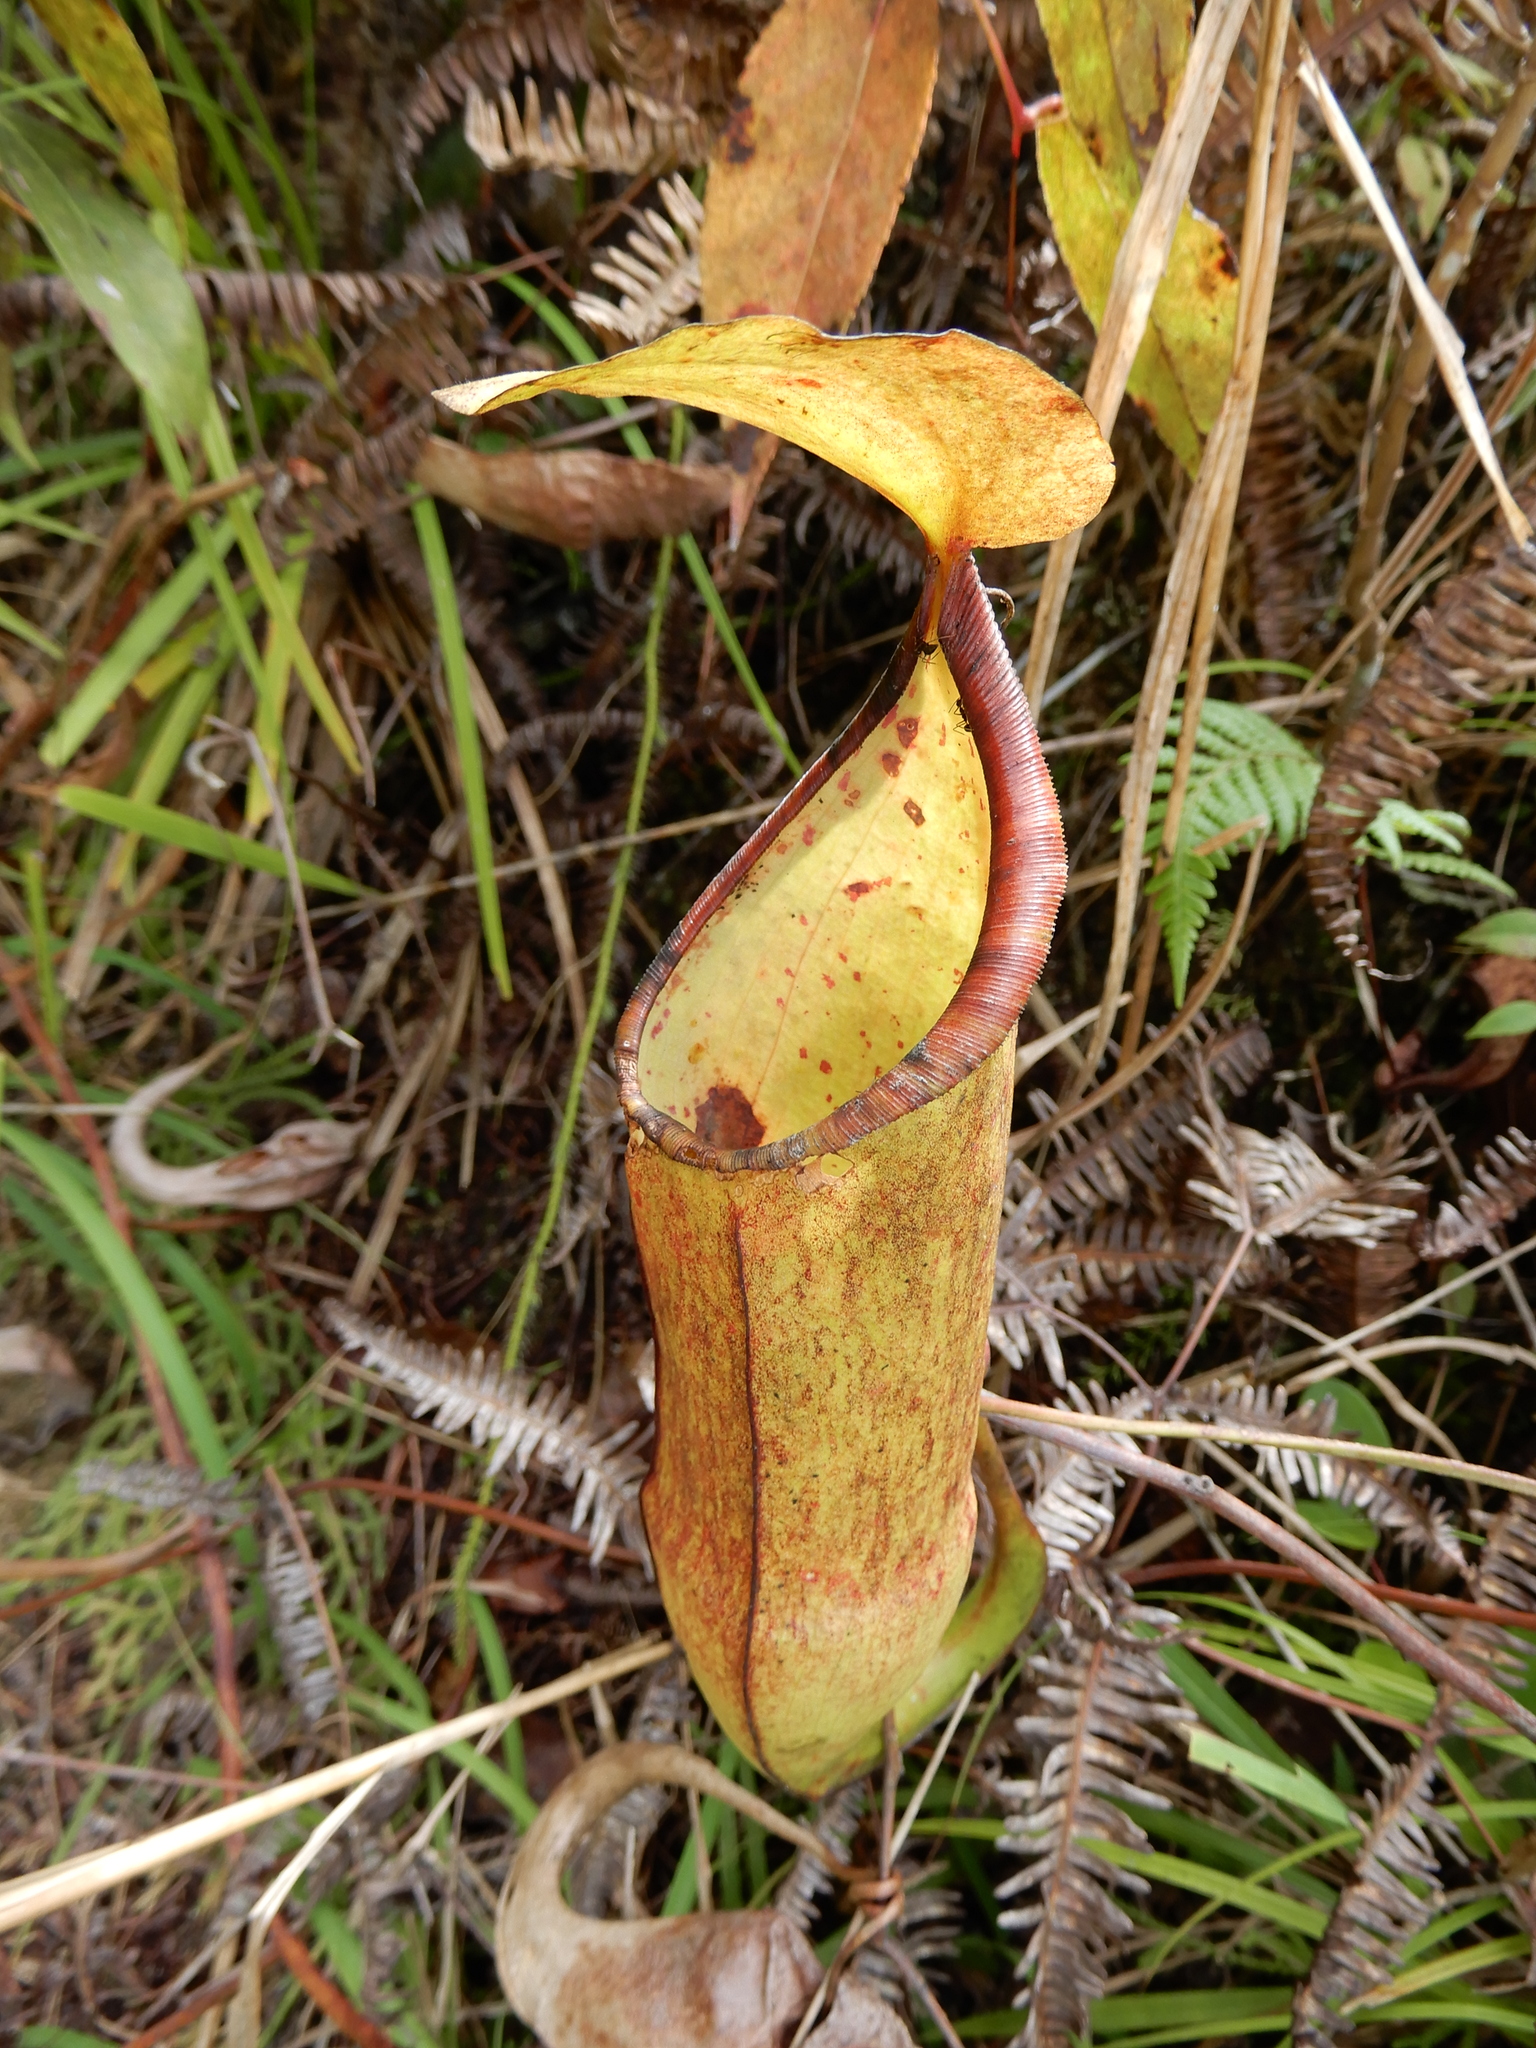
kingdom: Plantae
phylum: Tracheophyta
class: Magnoliopsida
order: Caryophyllales
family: Nepenthaceae
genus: Nepenthes
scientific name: Nepenthes sanguinea
